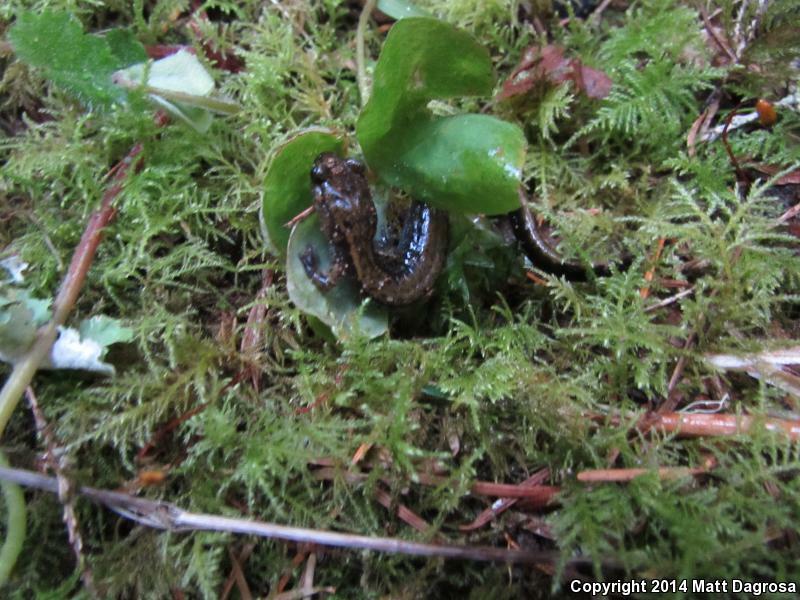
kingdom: Animalia
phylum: Chordata
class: Amphibia
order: Caudata
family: Plethodontidae
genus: Plethodon
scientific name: Plethodon dunni
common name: Dunn's salamander
